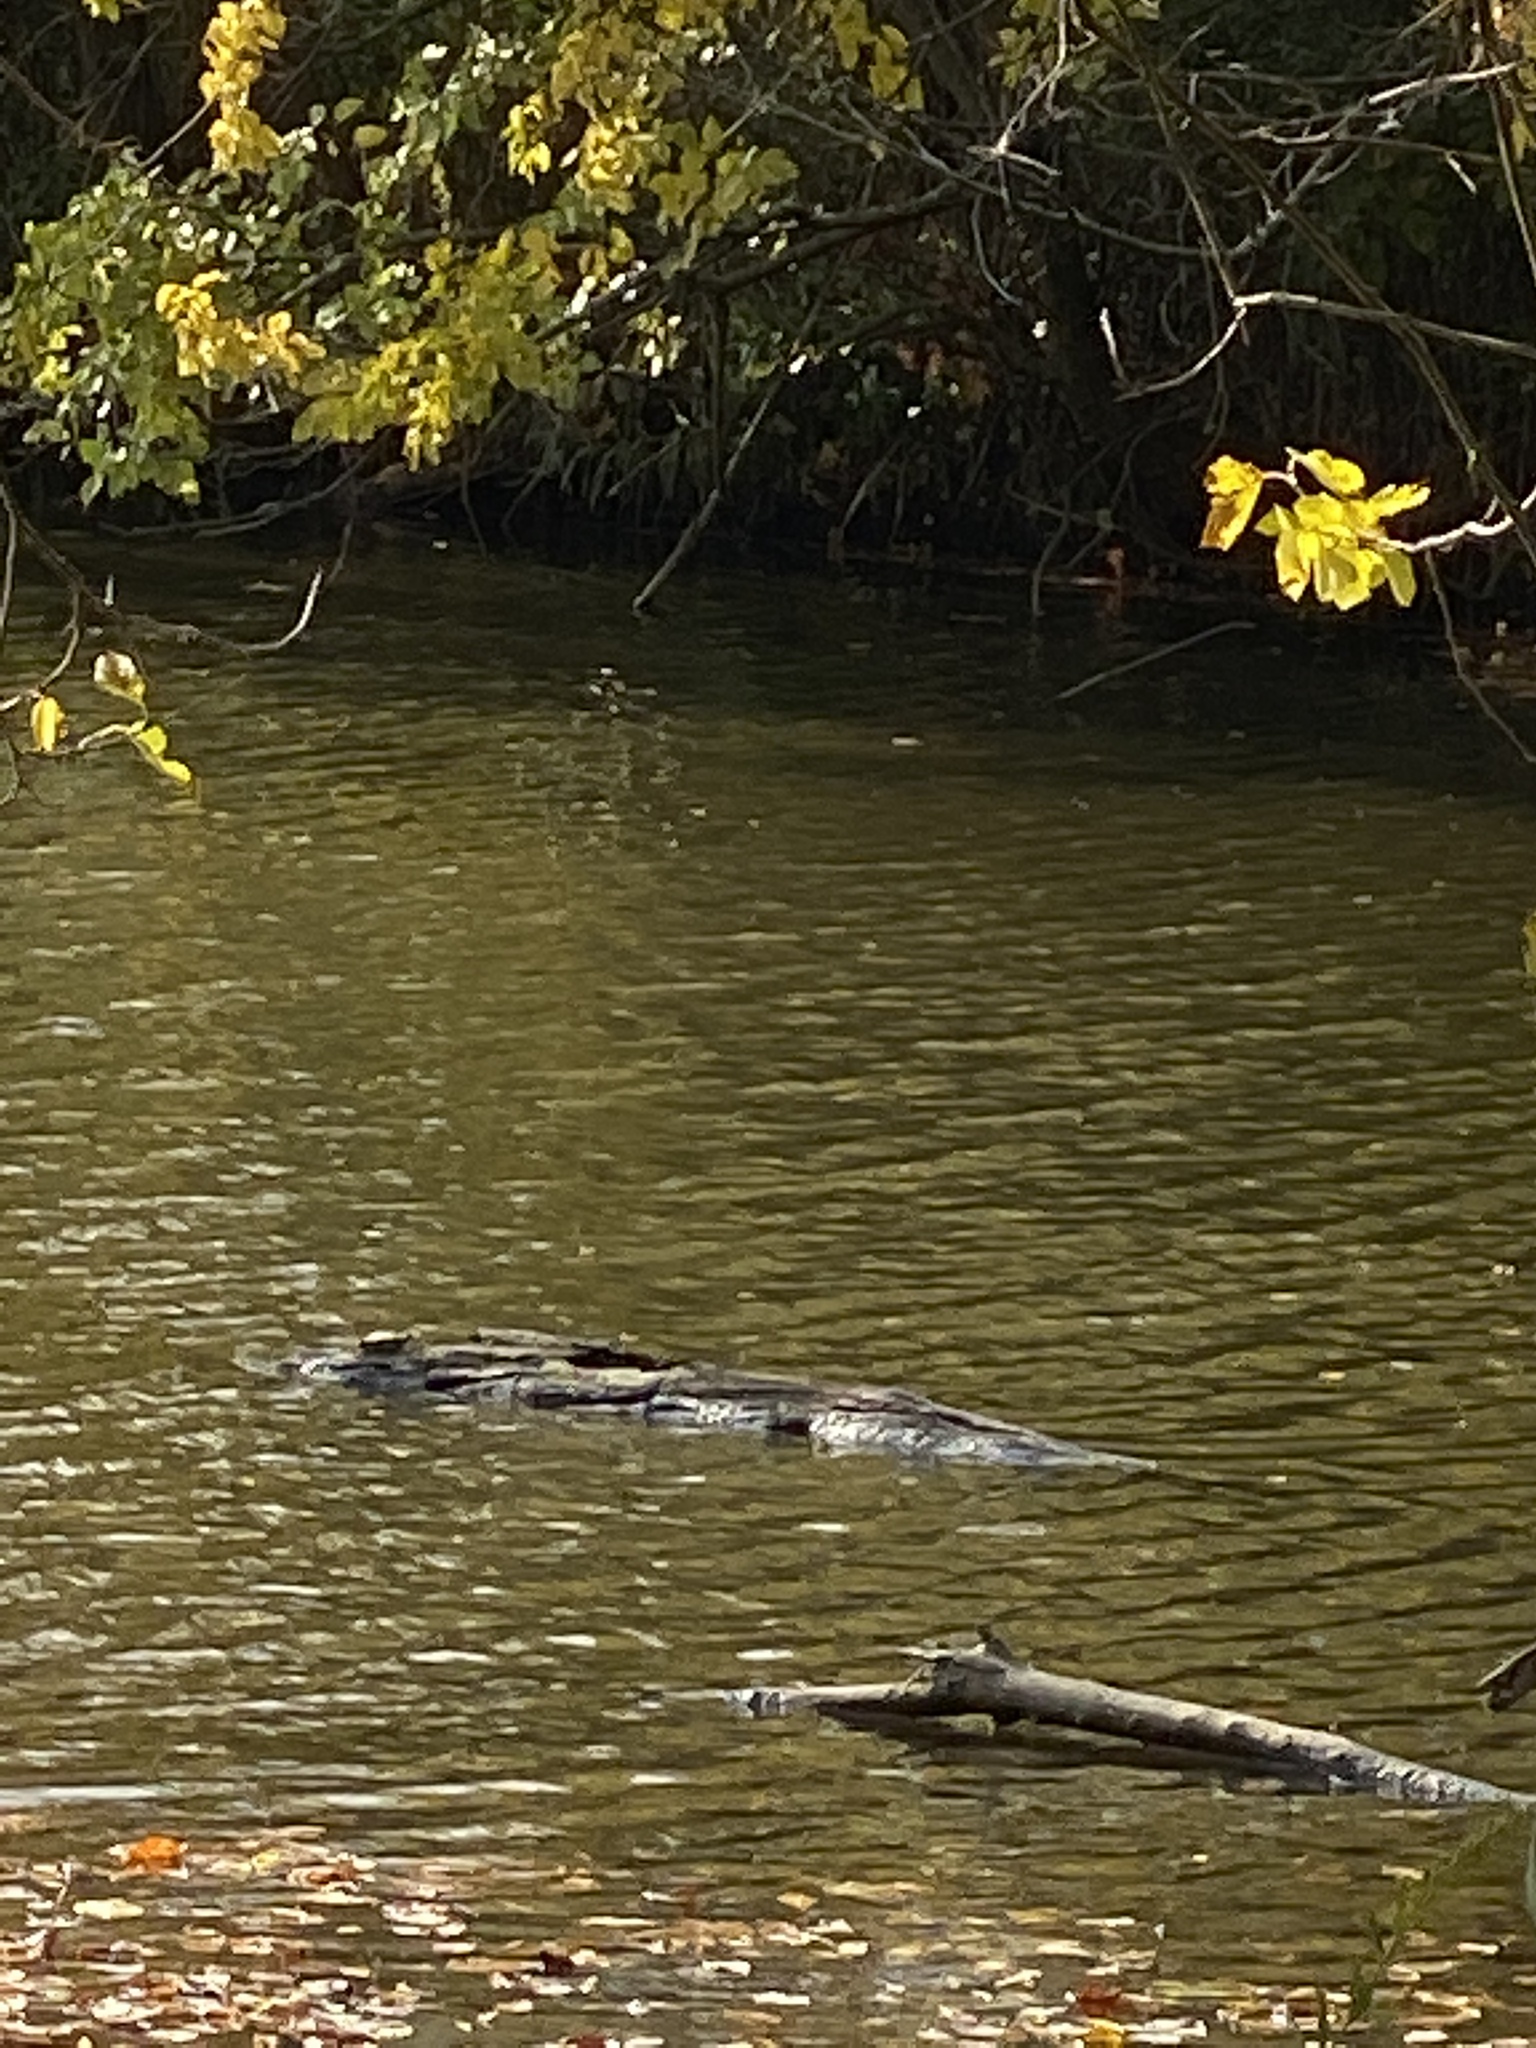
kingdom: Animalia
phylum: Chordata
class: Testudines
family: Emydidae
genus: Trachemys
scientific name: Trachemys scripta
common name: Slider
